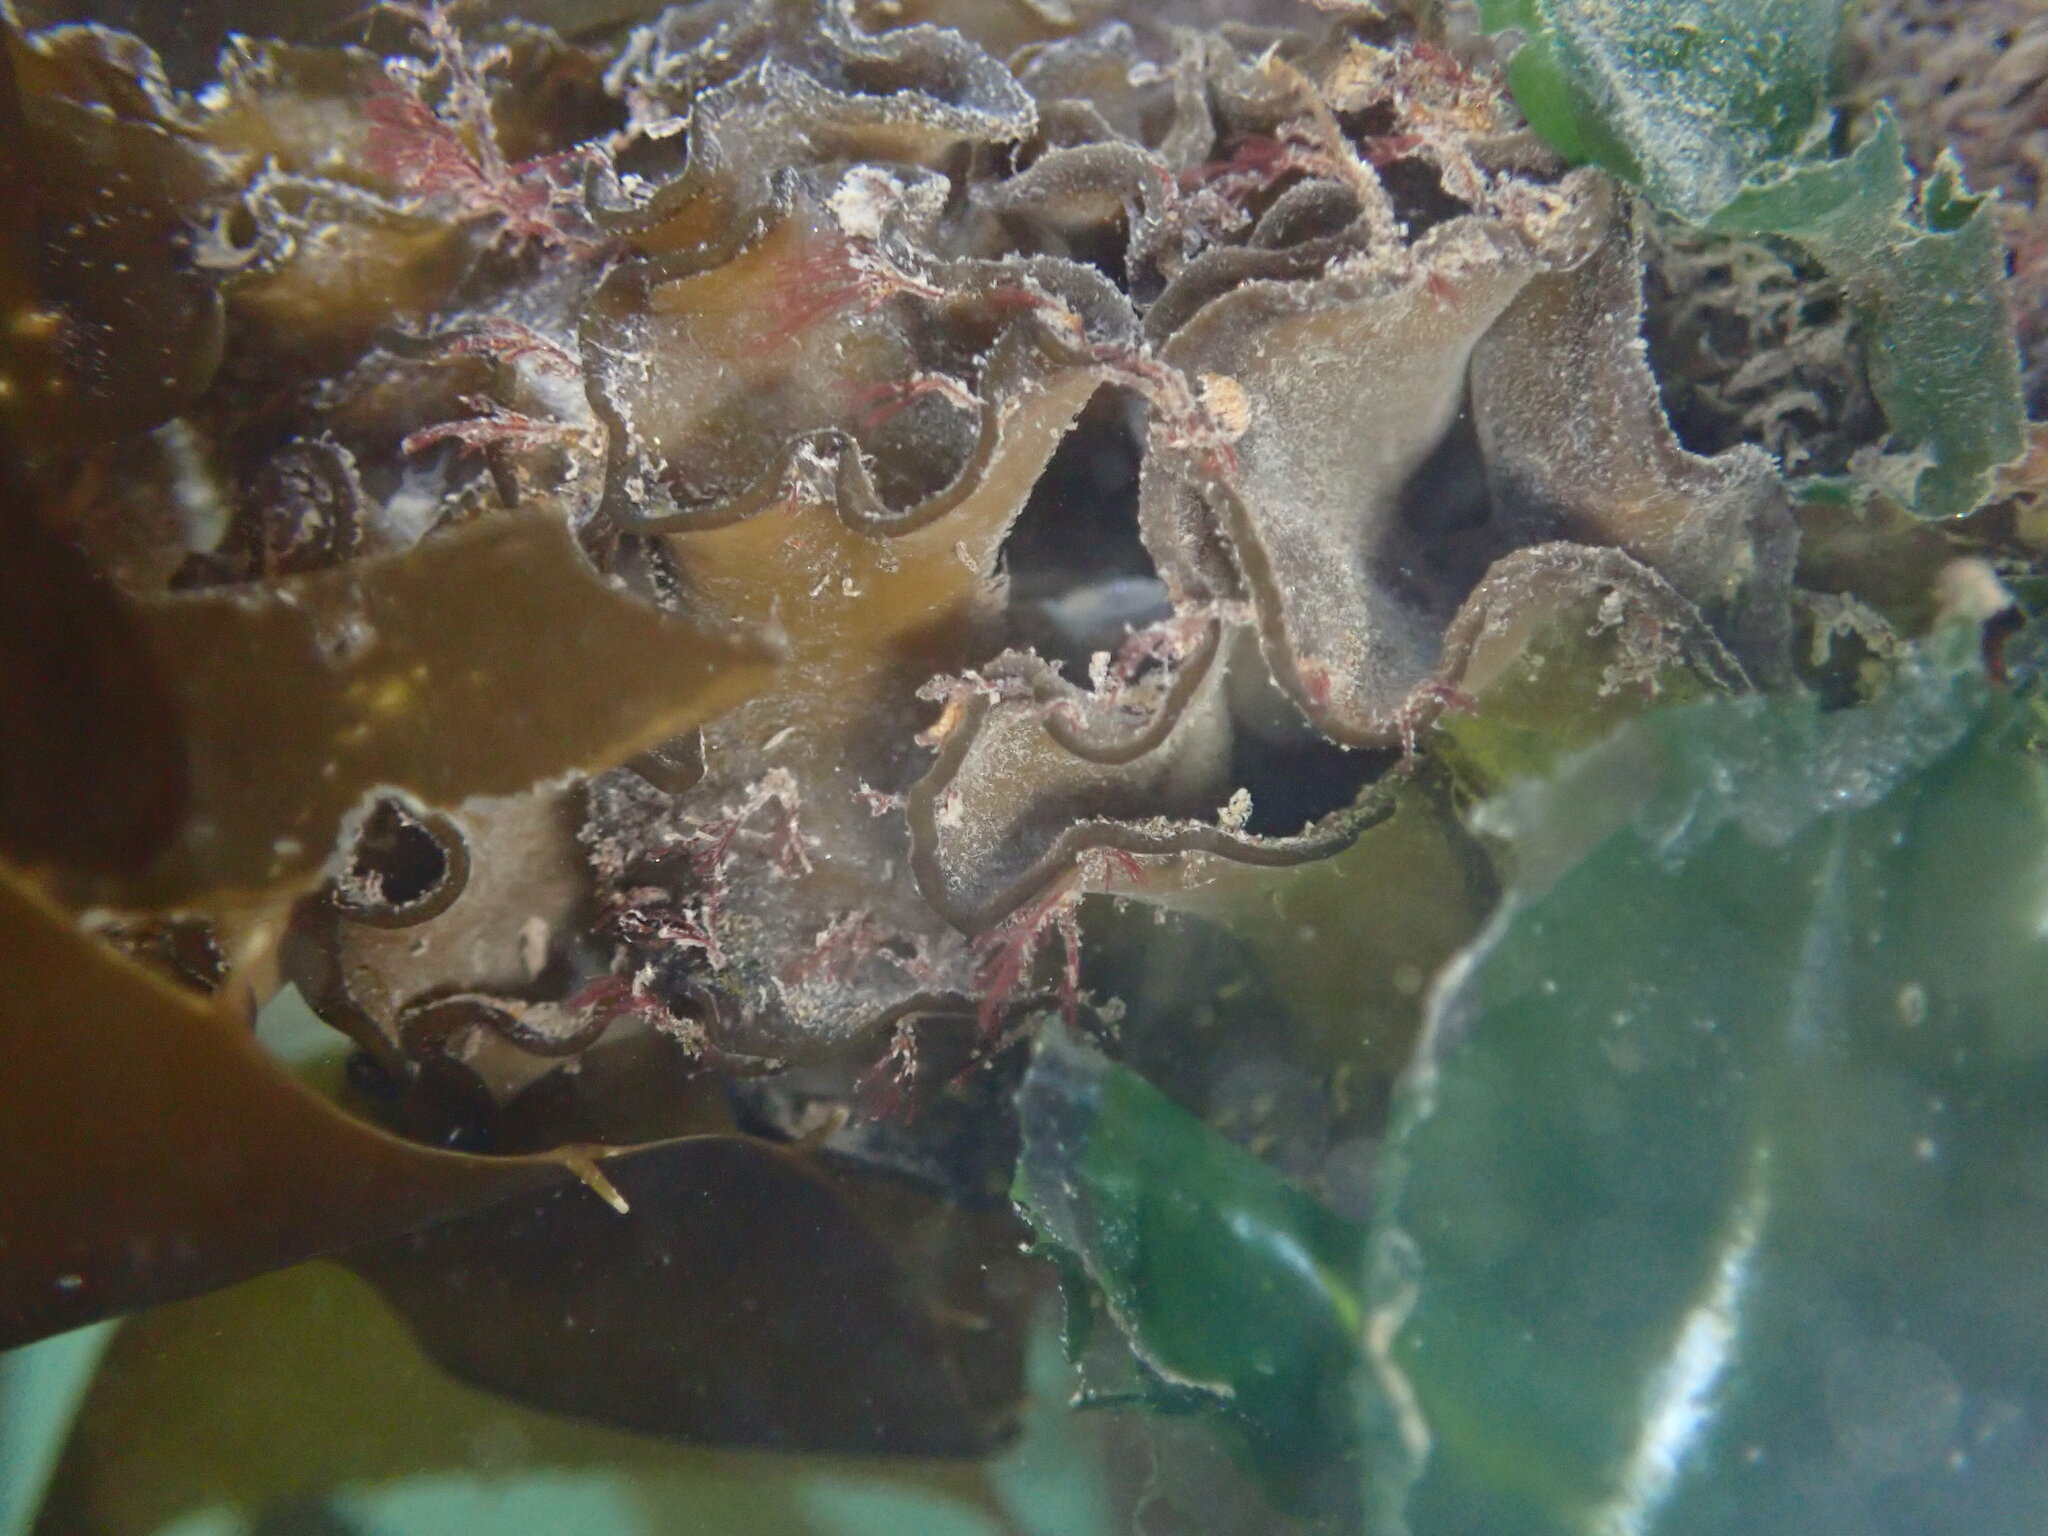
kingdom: Chromista
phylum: Ochrophyta
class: Phaeophyceae
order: Laminariales
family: Alariaceae
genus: Undaria
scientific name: Undaria pinnatifida
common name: Asian kelp
